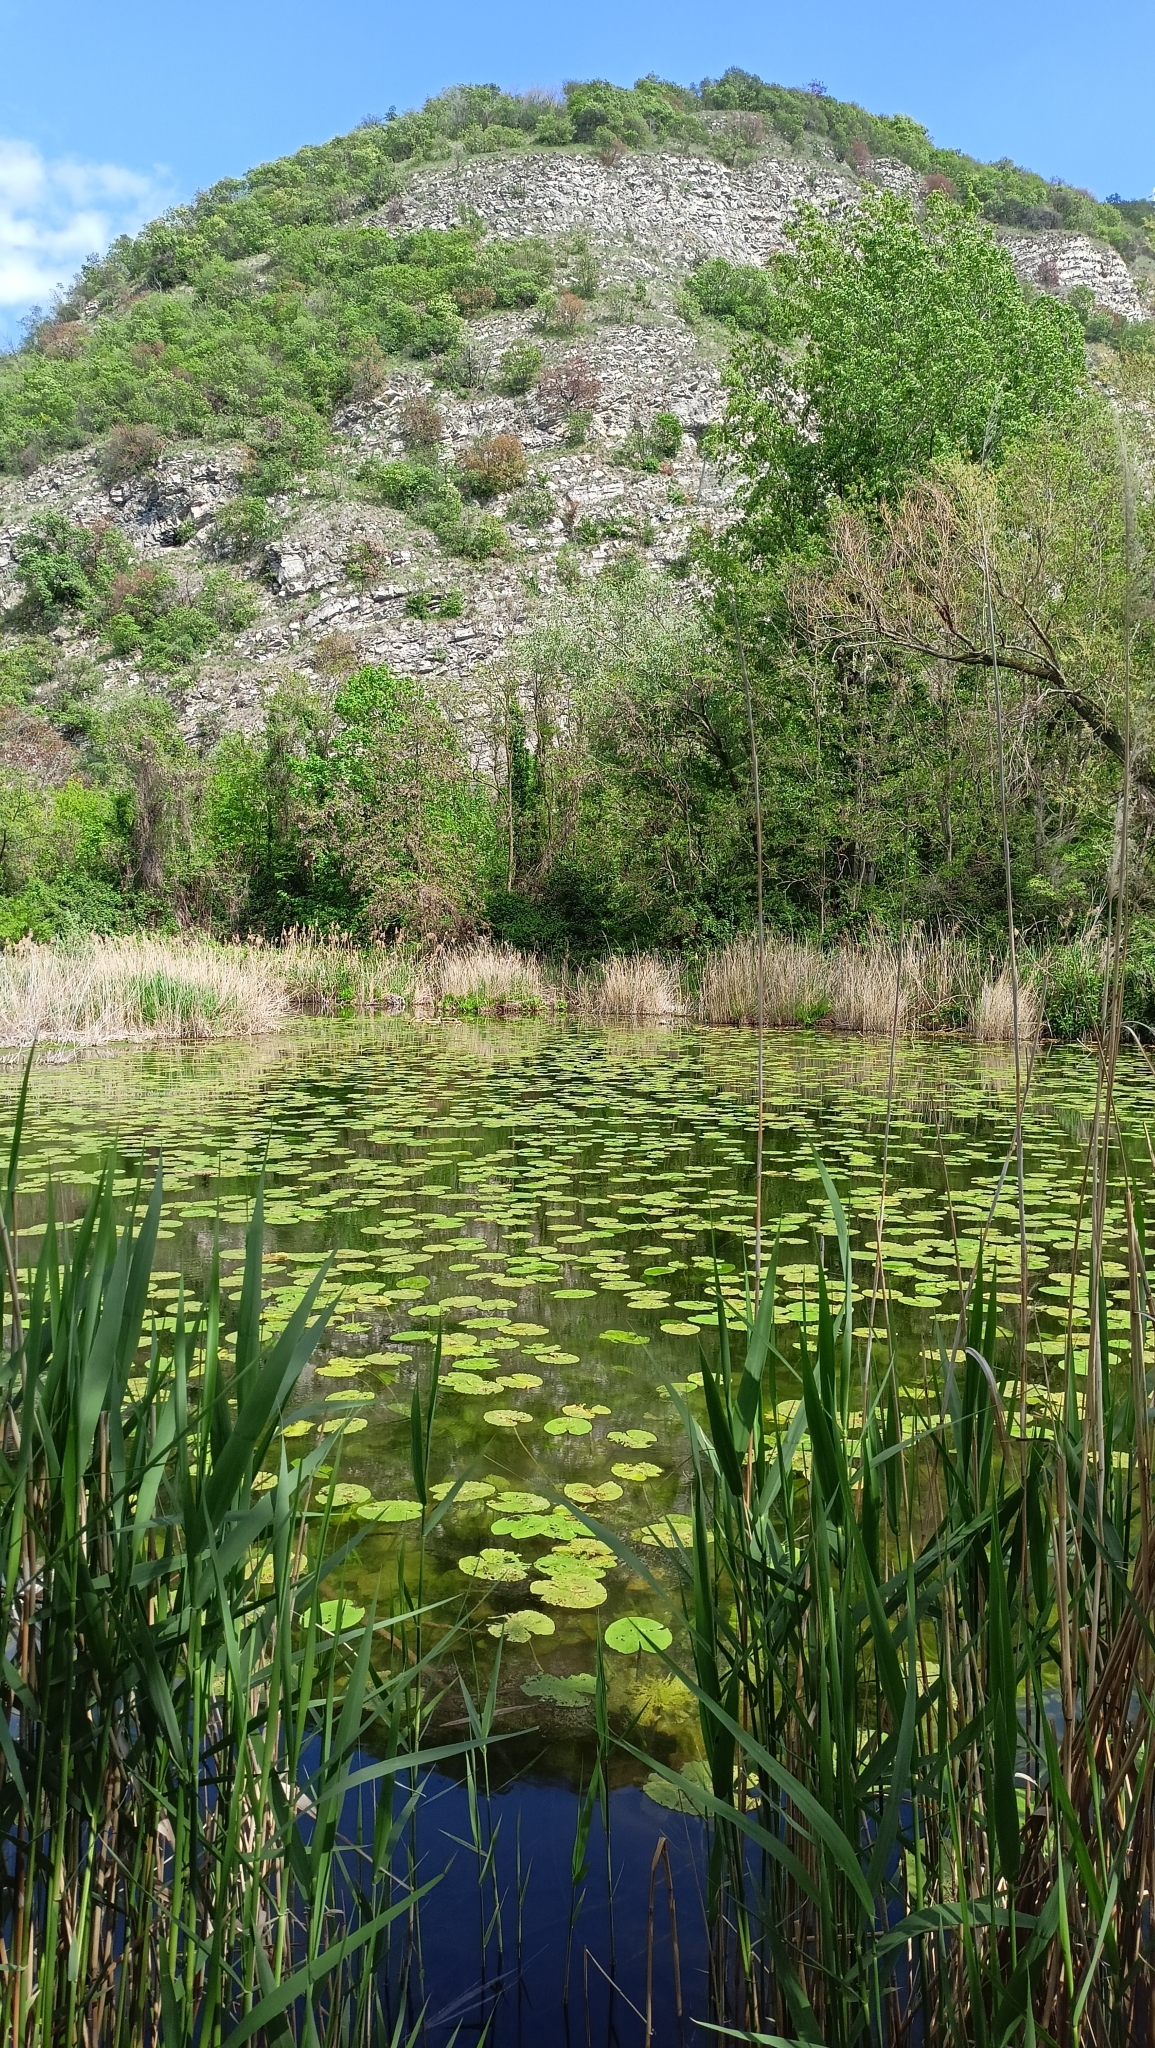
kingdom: Plantae
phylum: Tracheophyta
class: Magnoliopsida
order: Nymphaeales
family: Nymphaeaceae
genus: Nuphar
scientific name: Nuphar lutea
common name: Yellow water-lily
